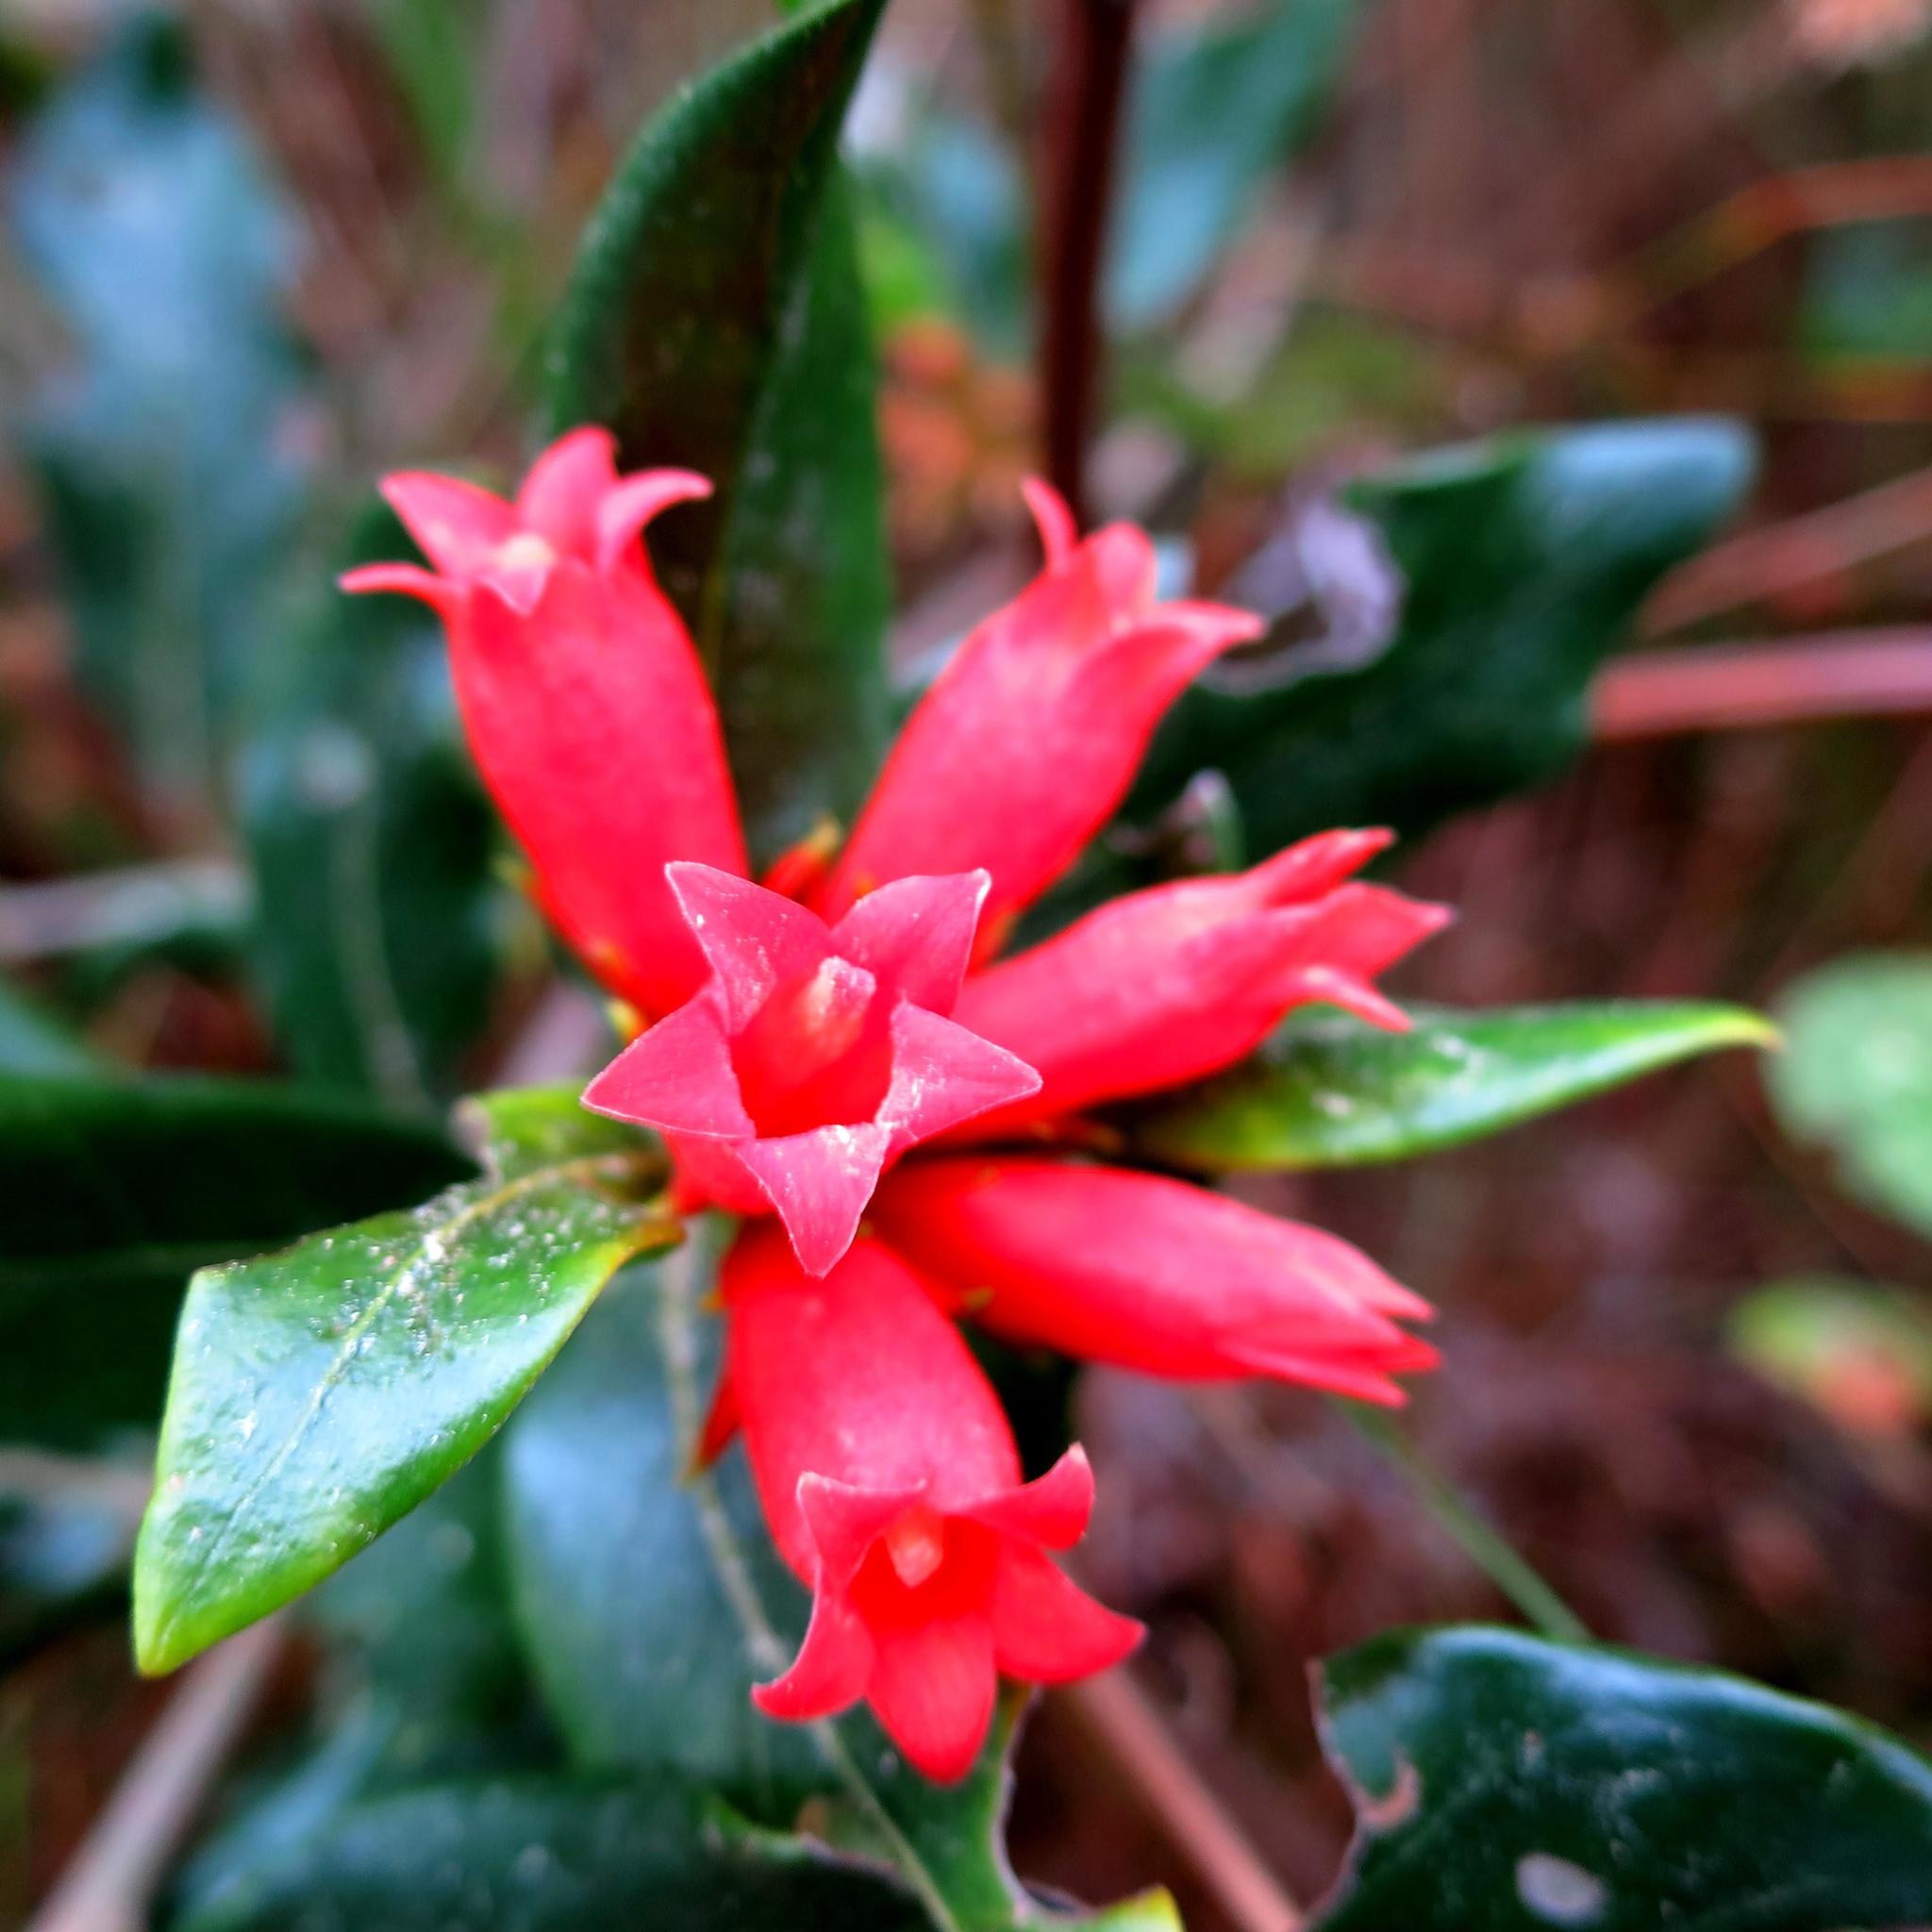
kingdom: Plantae
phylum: Tracheophyta
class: Magnoliopsida
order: Gentianales
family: Rubiaceae
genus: Burchellia
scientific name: Burchellia bubalina
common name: Wild pomegranate
